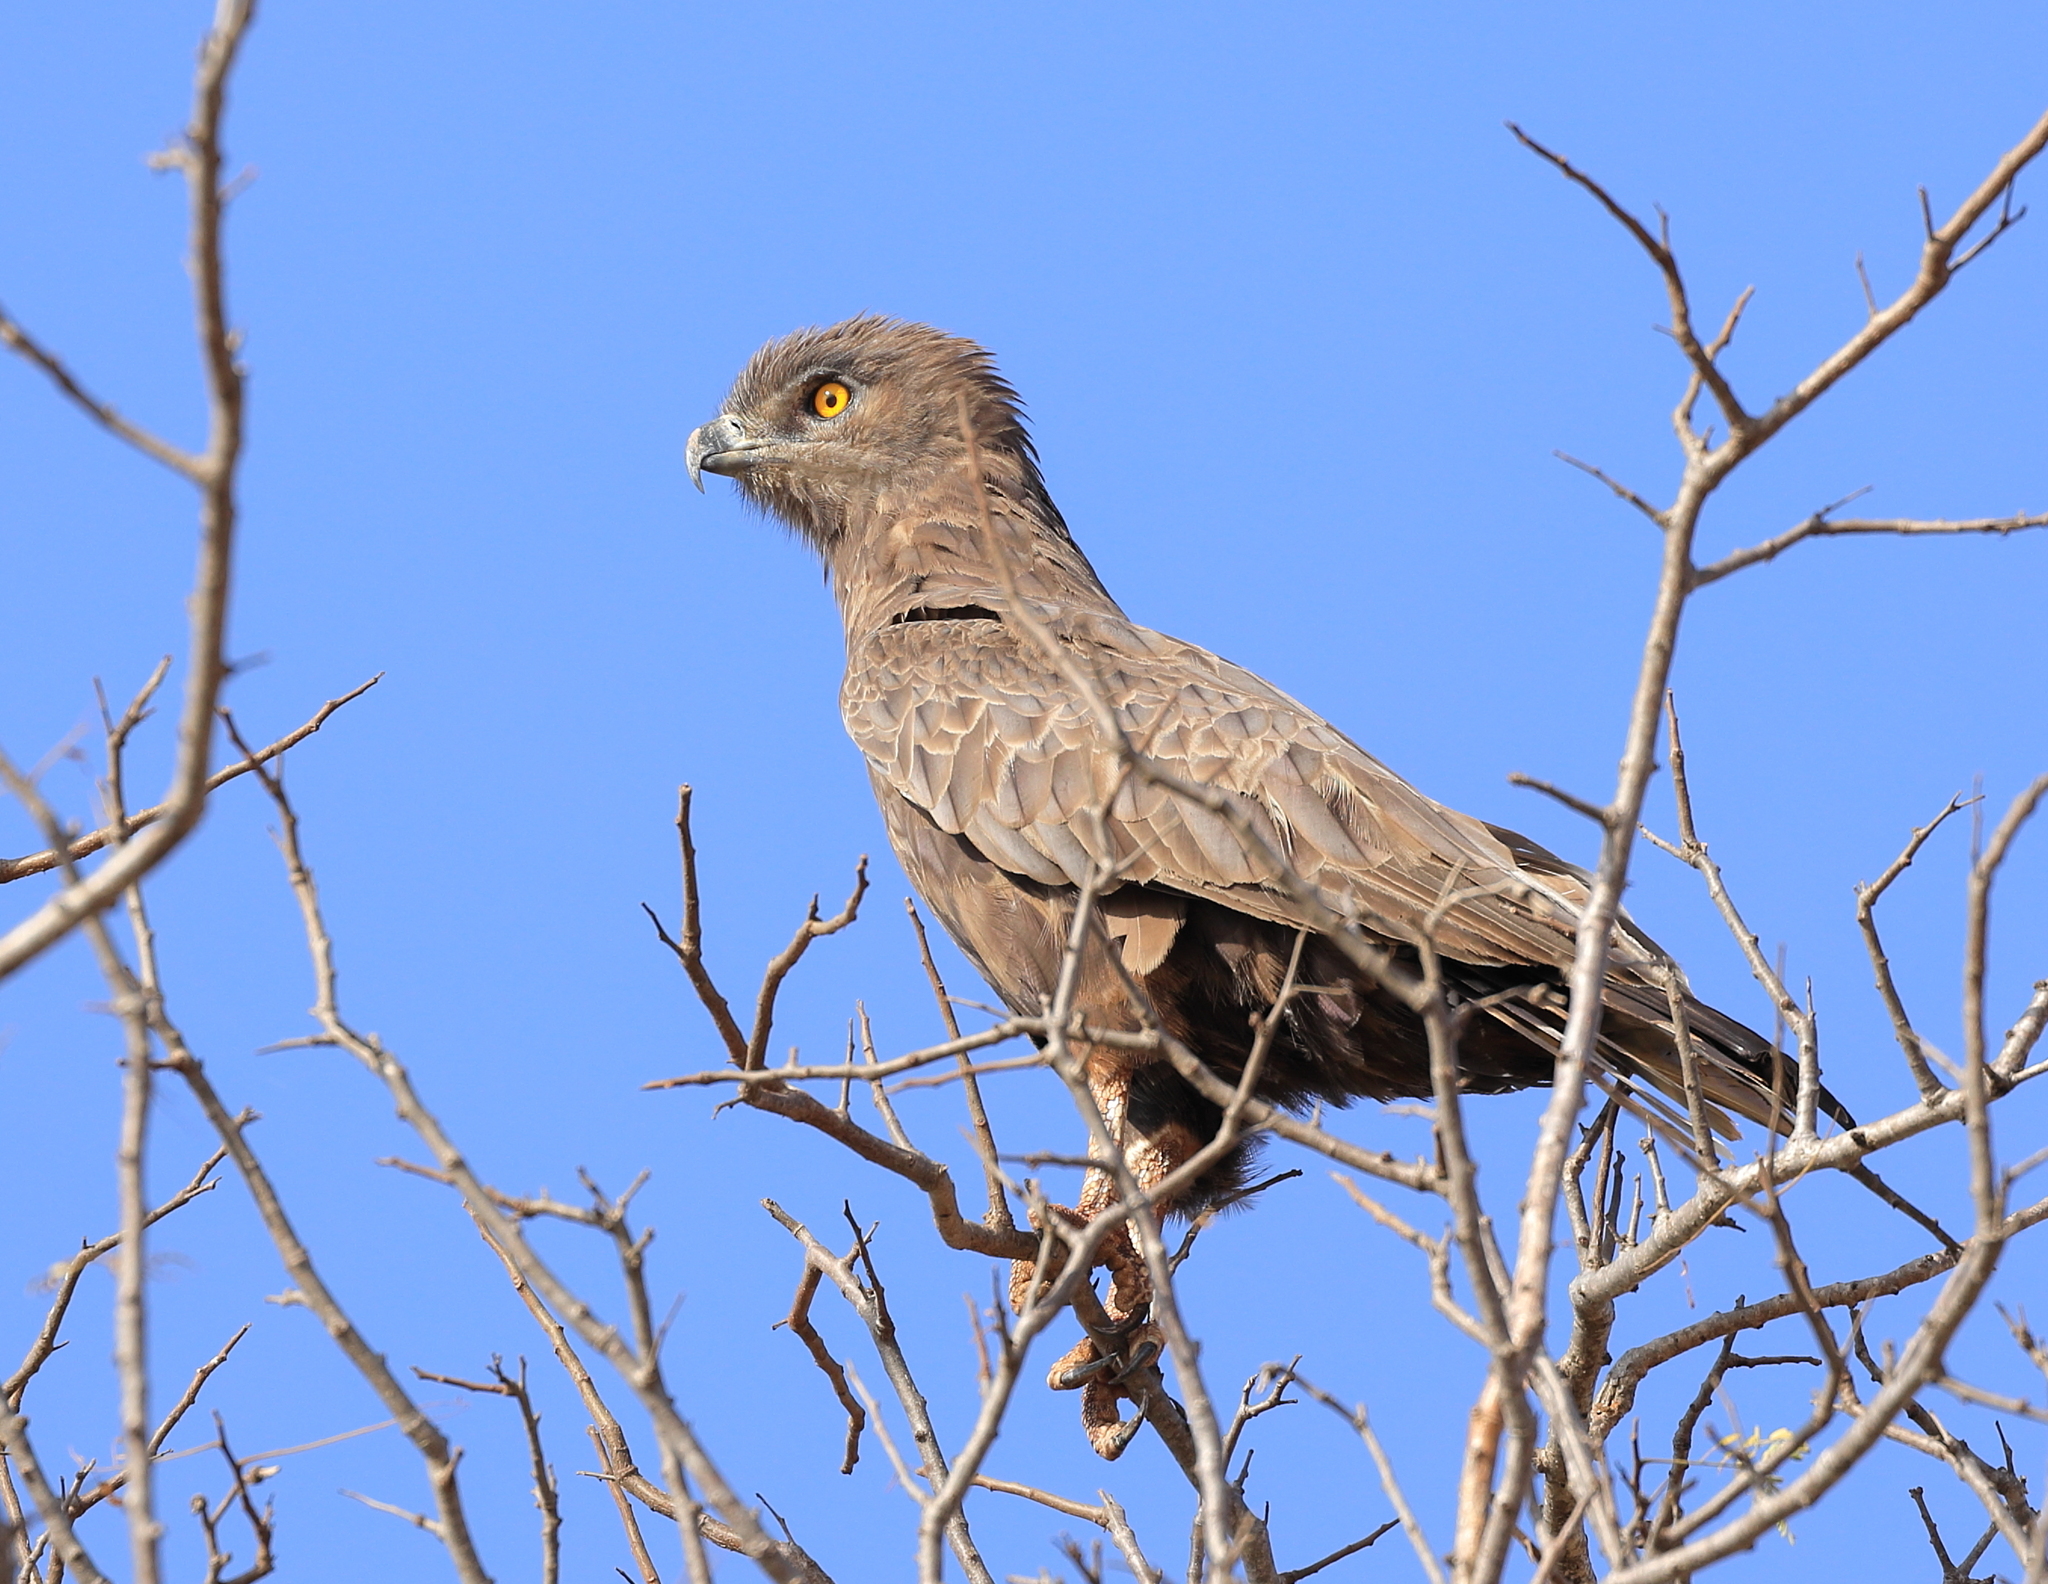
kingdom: Animalia
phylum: Chordata
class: Aves
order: Accipitriformes
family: Accipitridae
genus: Circaetus
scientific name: Circaetus cinereus
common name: Brown snake eagle
